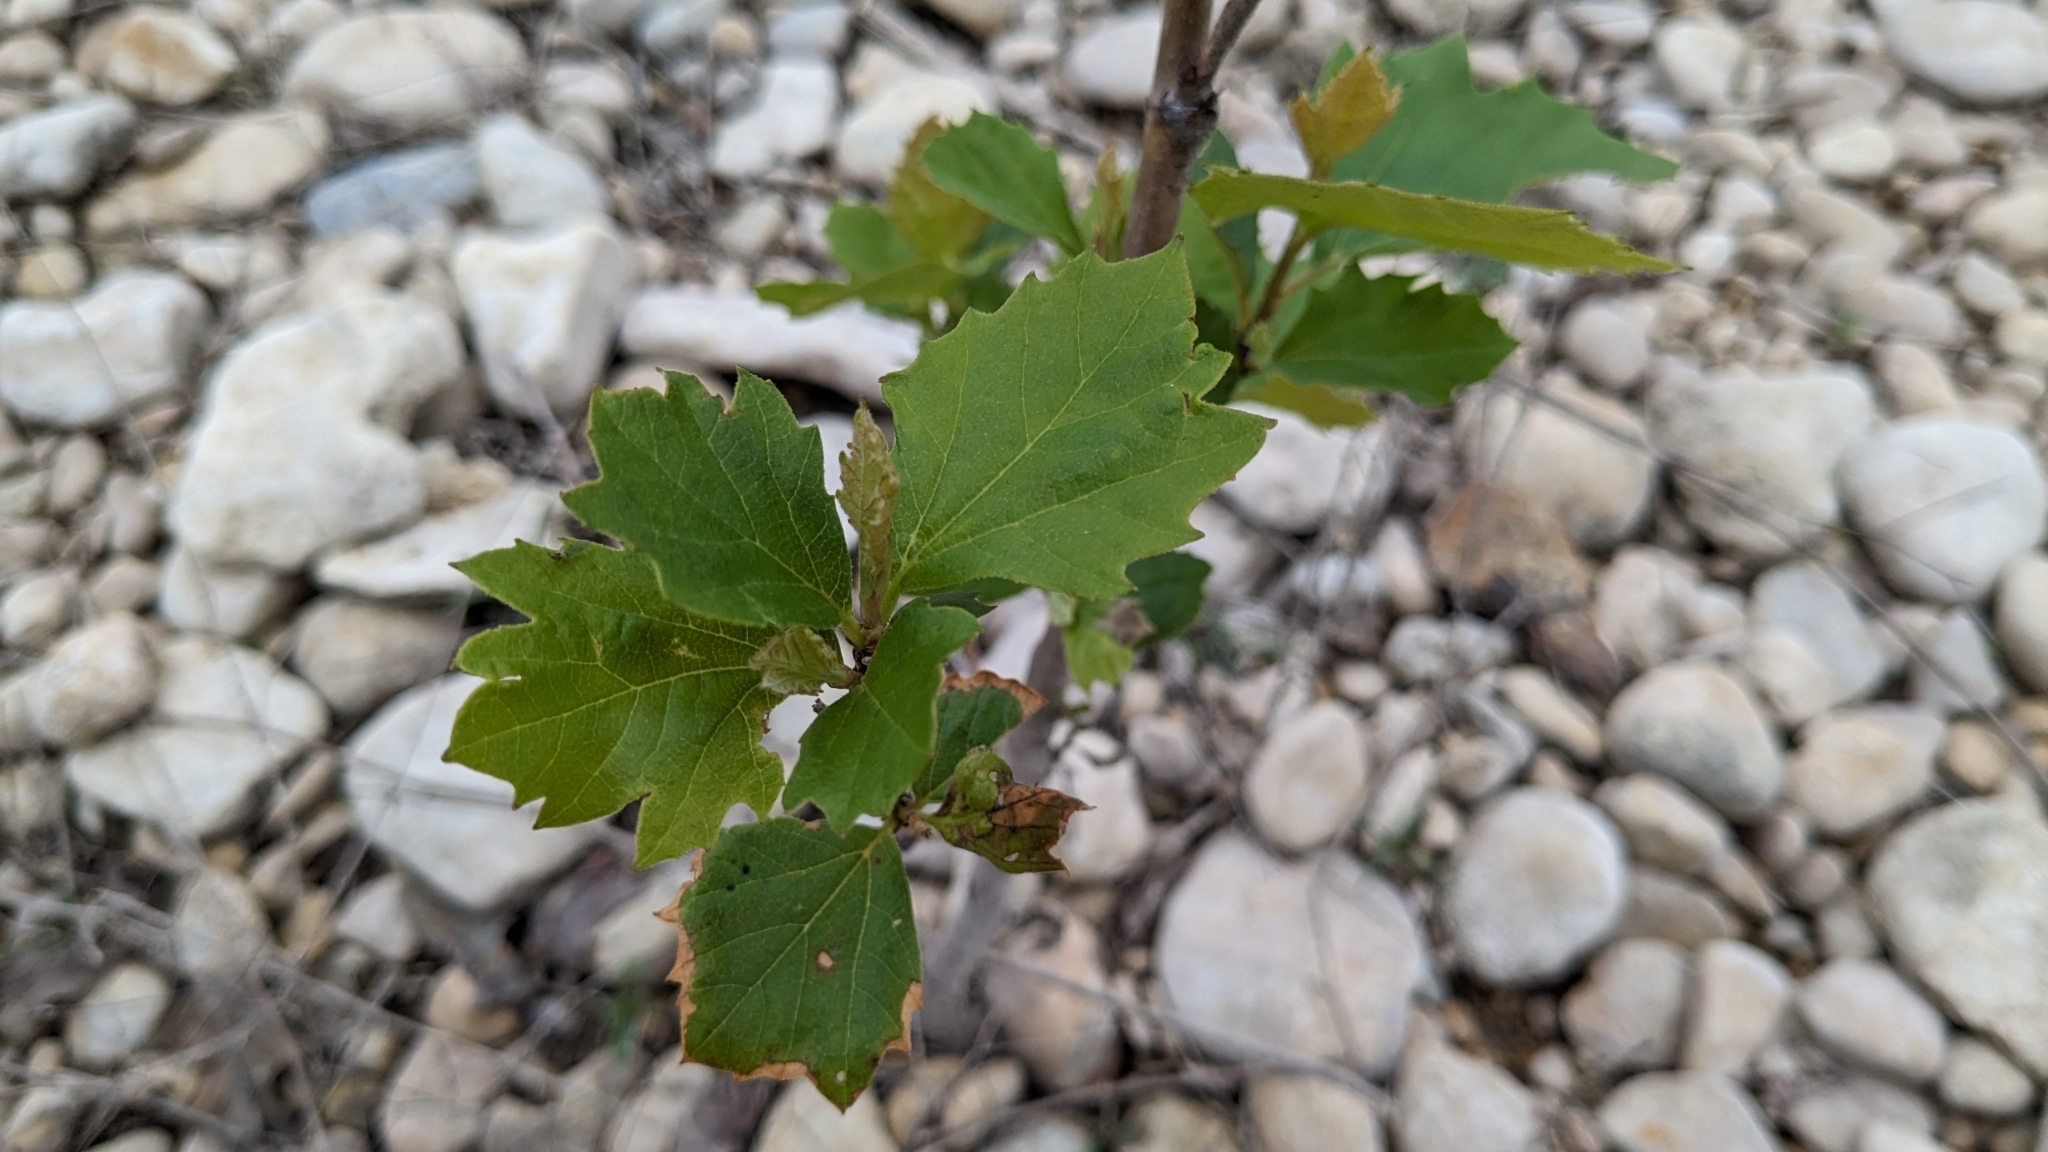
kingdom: Plantae
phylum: Tracheophyta
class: Magnoliopsida
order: Proteales
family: Platanaceae
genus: Platanus
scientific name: Platanus occidentalis
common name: American sycamore
